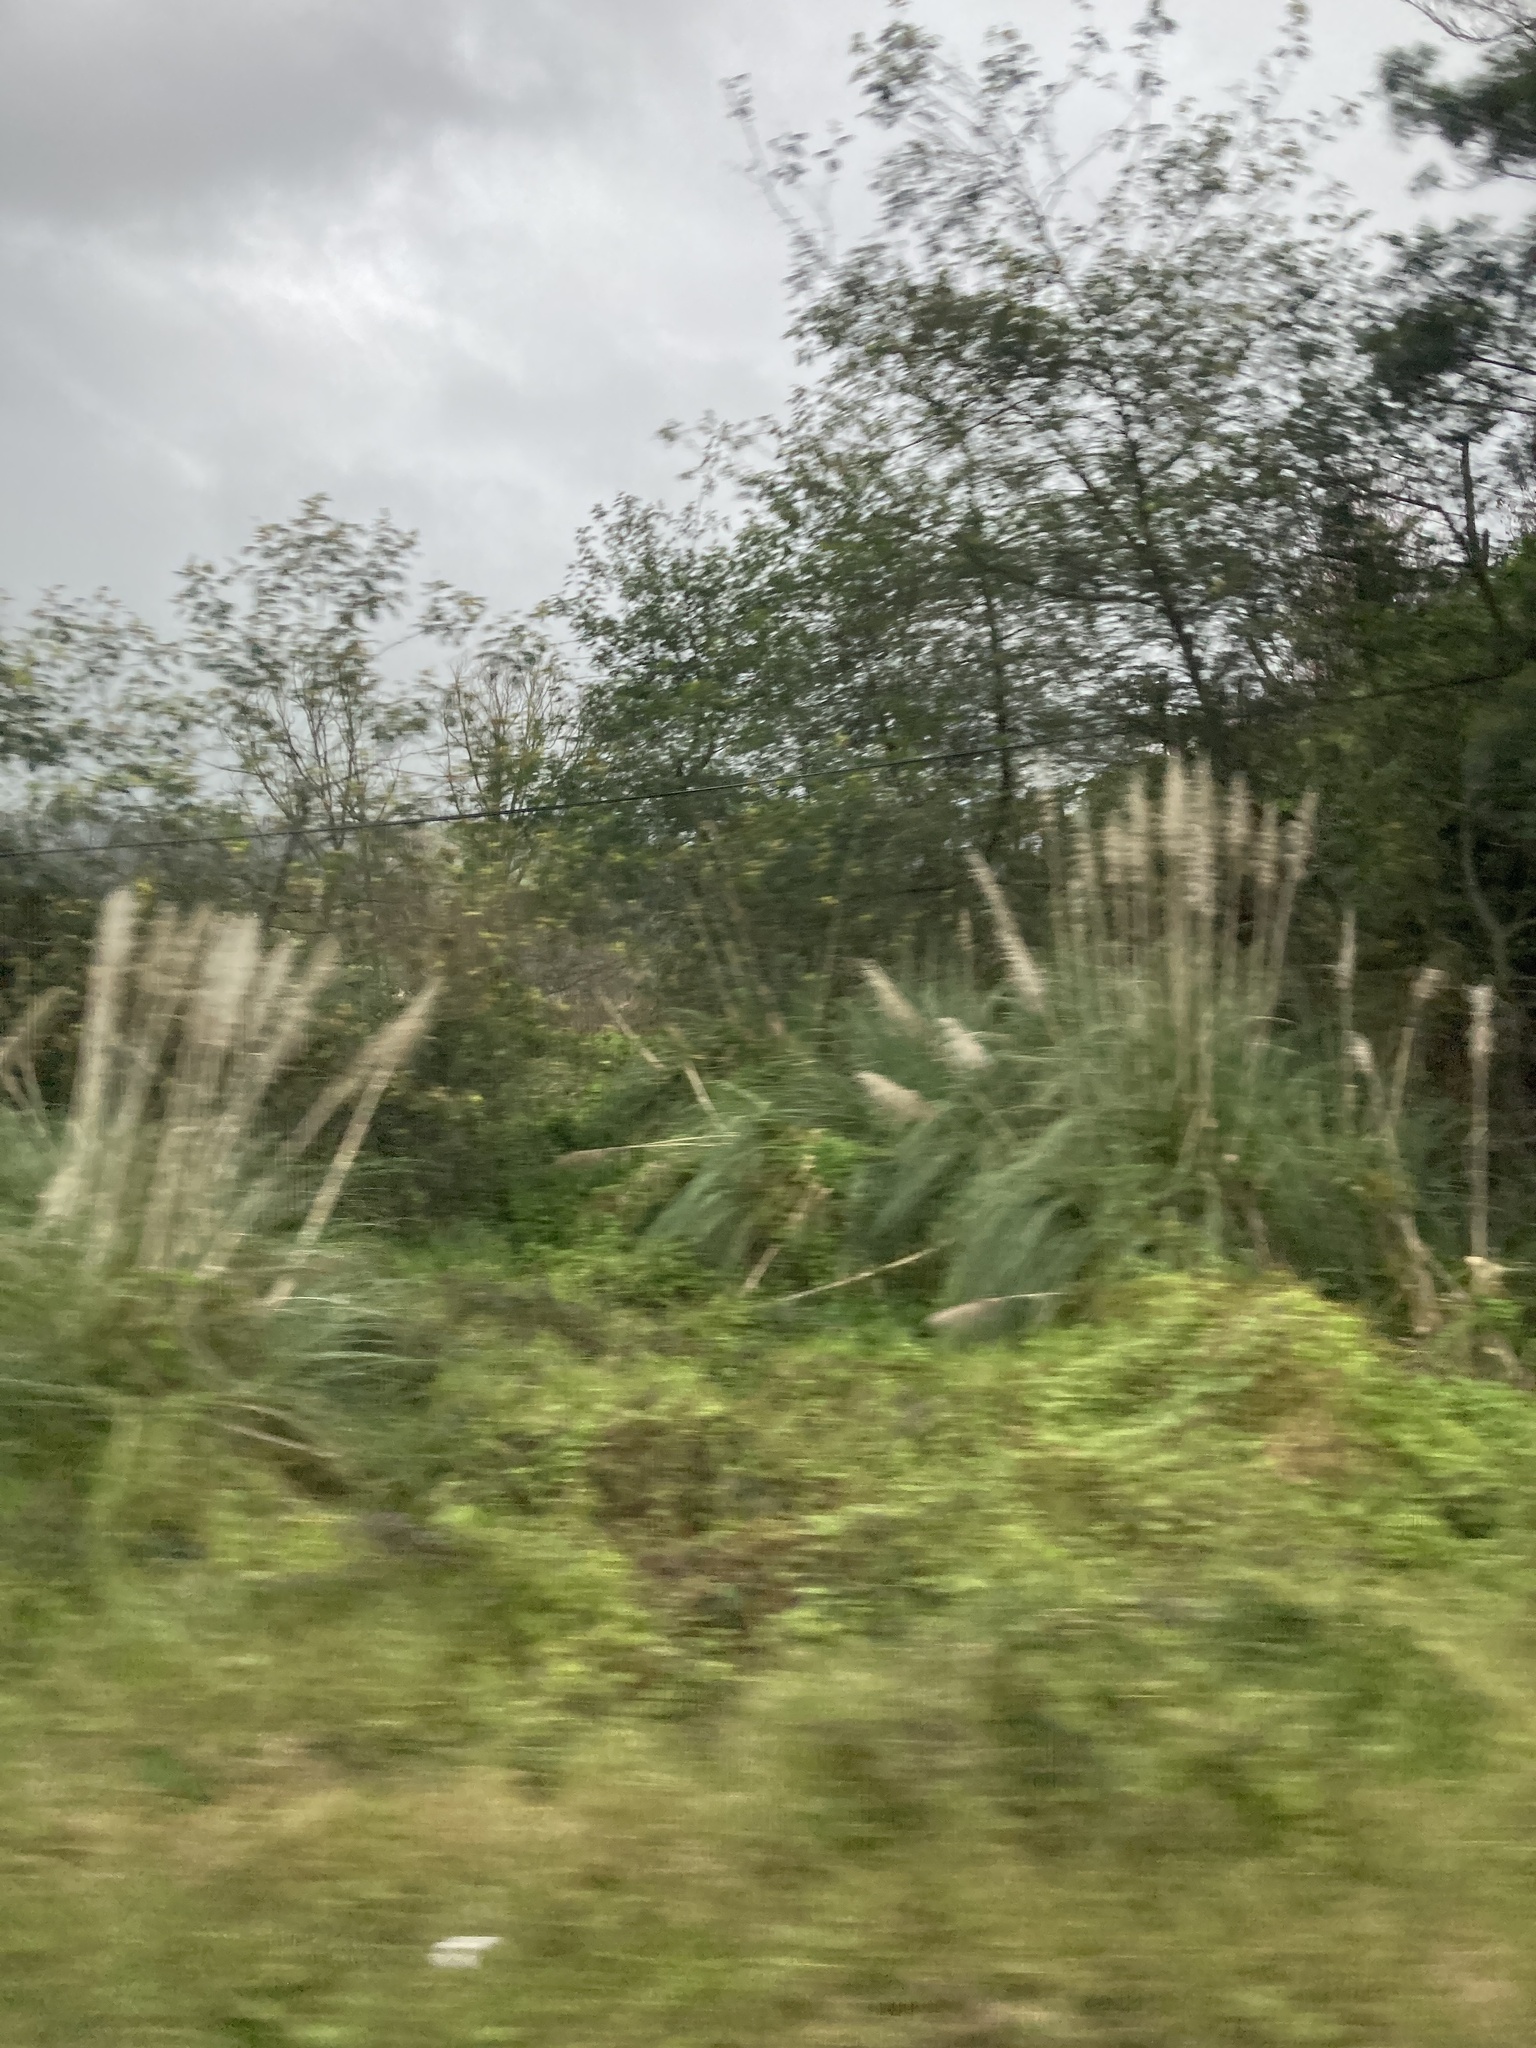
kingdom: Plantae
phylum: Tracheophyta
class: Liliopsida
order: Poales
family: Poaceae
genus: Cortaderia
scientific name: Cortaderia selloana
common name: Uruguayan pampas grass
